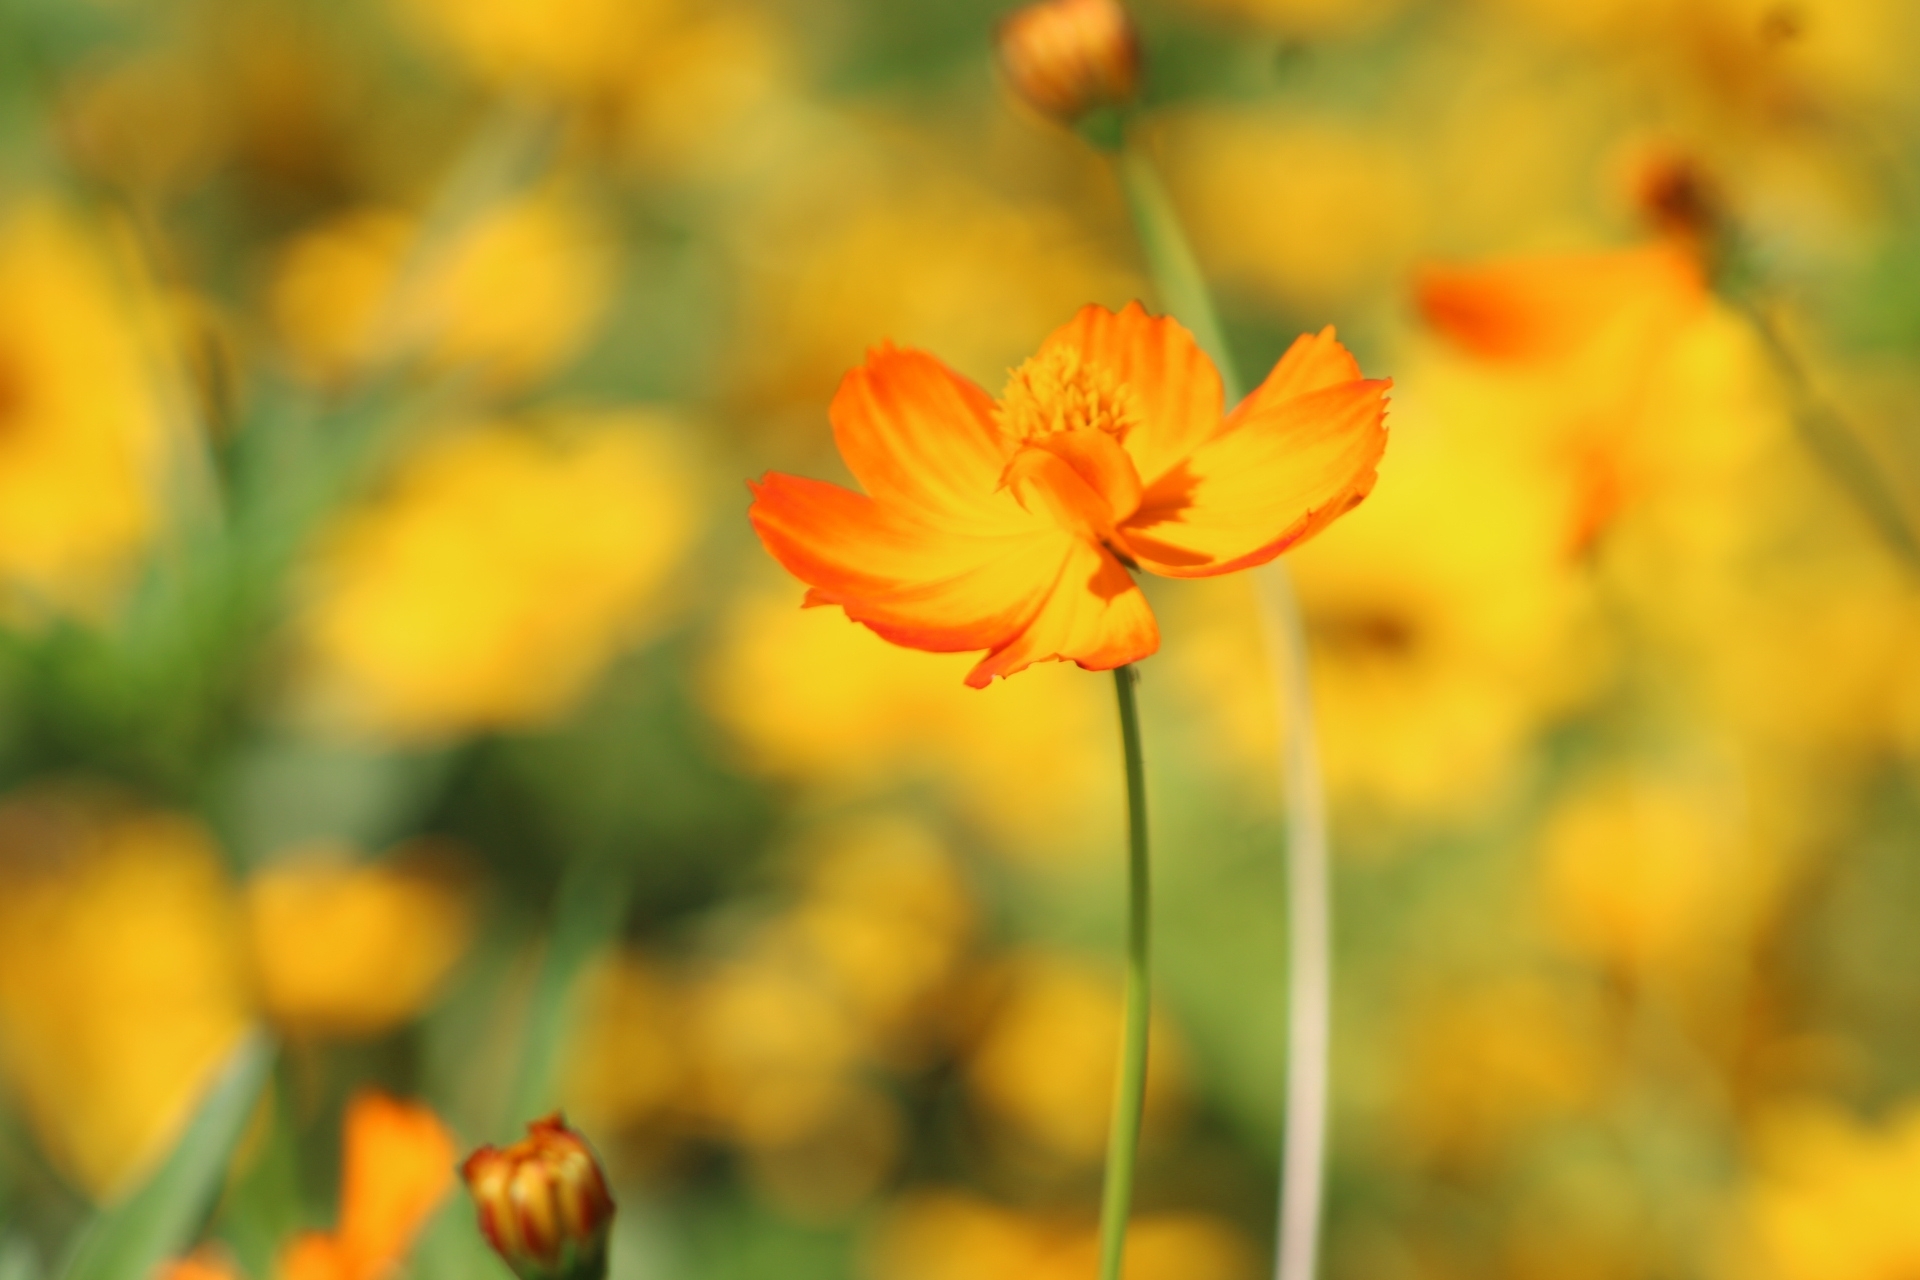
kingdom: Plantae
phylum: Tracheophyta
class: Magnoliopsida
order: Asterales
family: Asteraceae
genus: Cosmos
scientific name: Cosmos sulphureus
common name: Sulphur cosmos
